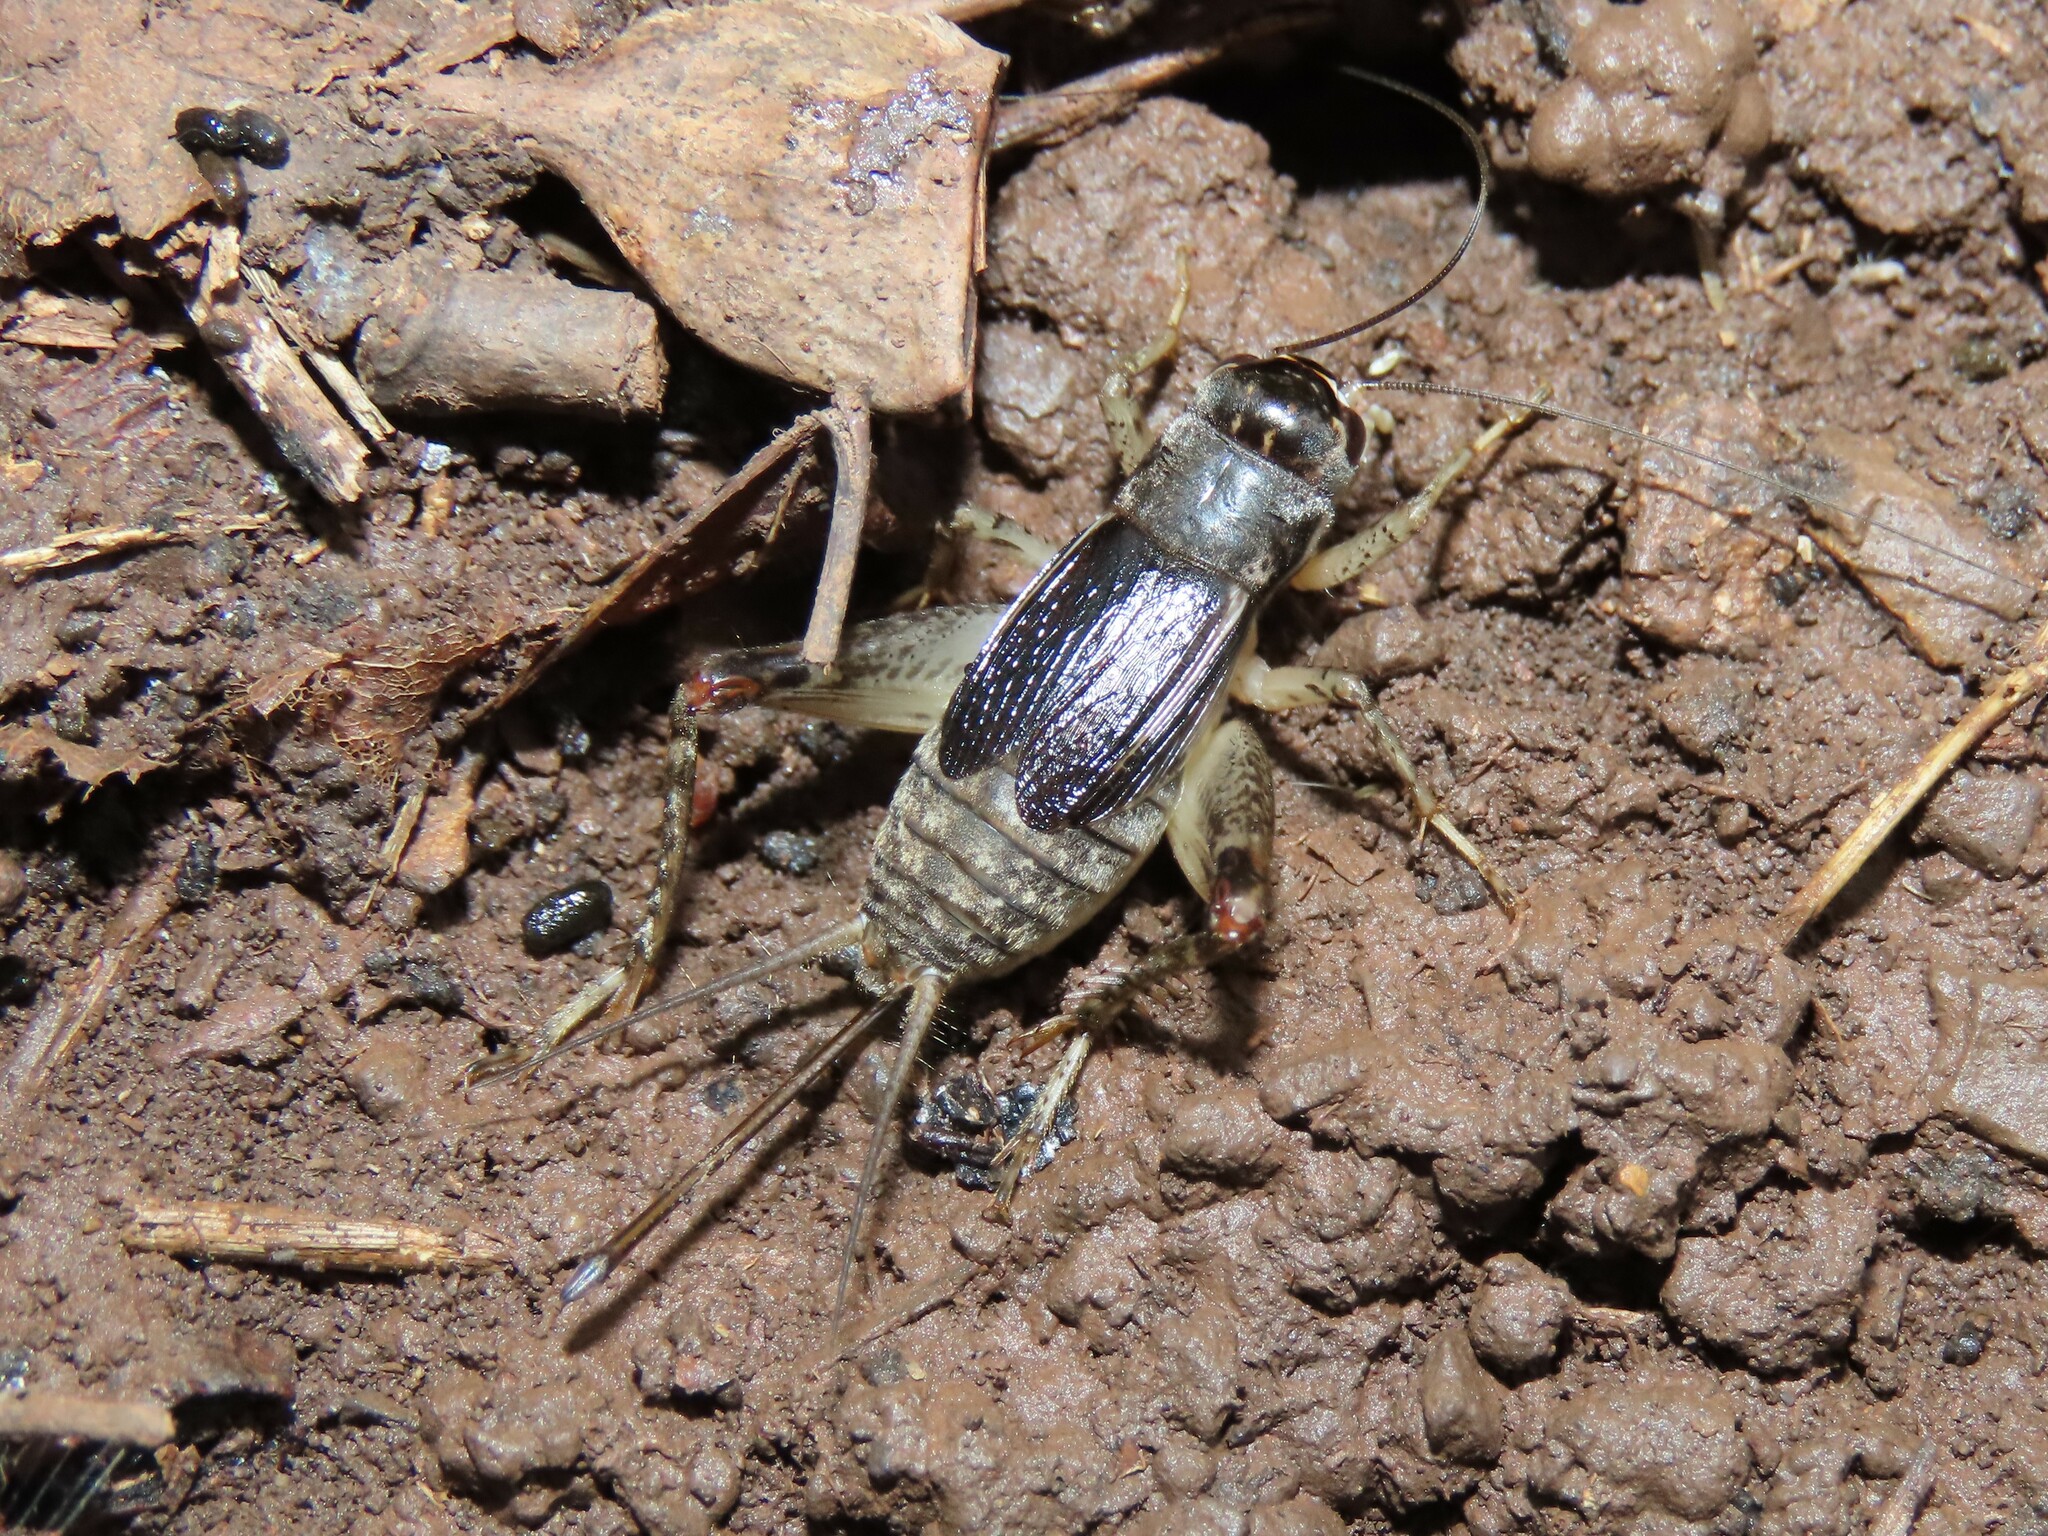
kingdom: Animalia
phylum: Arthropoda
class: Insecta
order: Orthoptera
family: Gryllidae
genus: Velarifictorus
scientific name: Velarifictorus micado
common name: Japanese burrowing cricket
